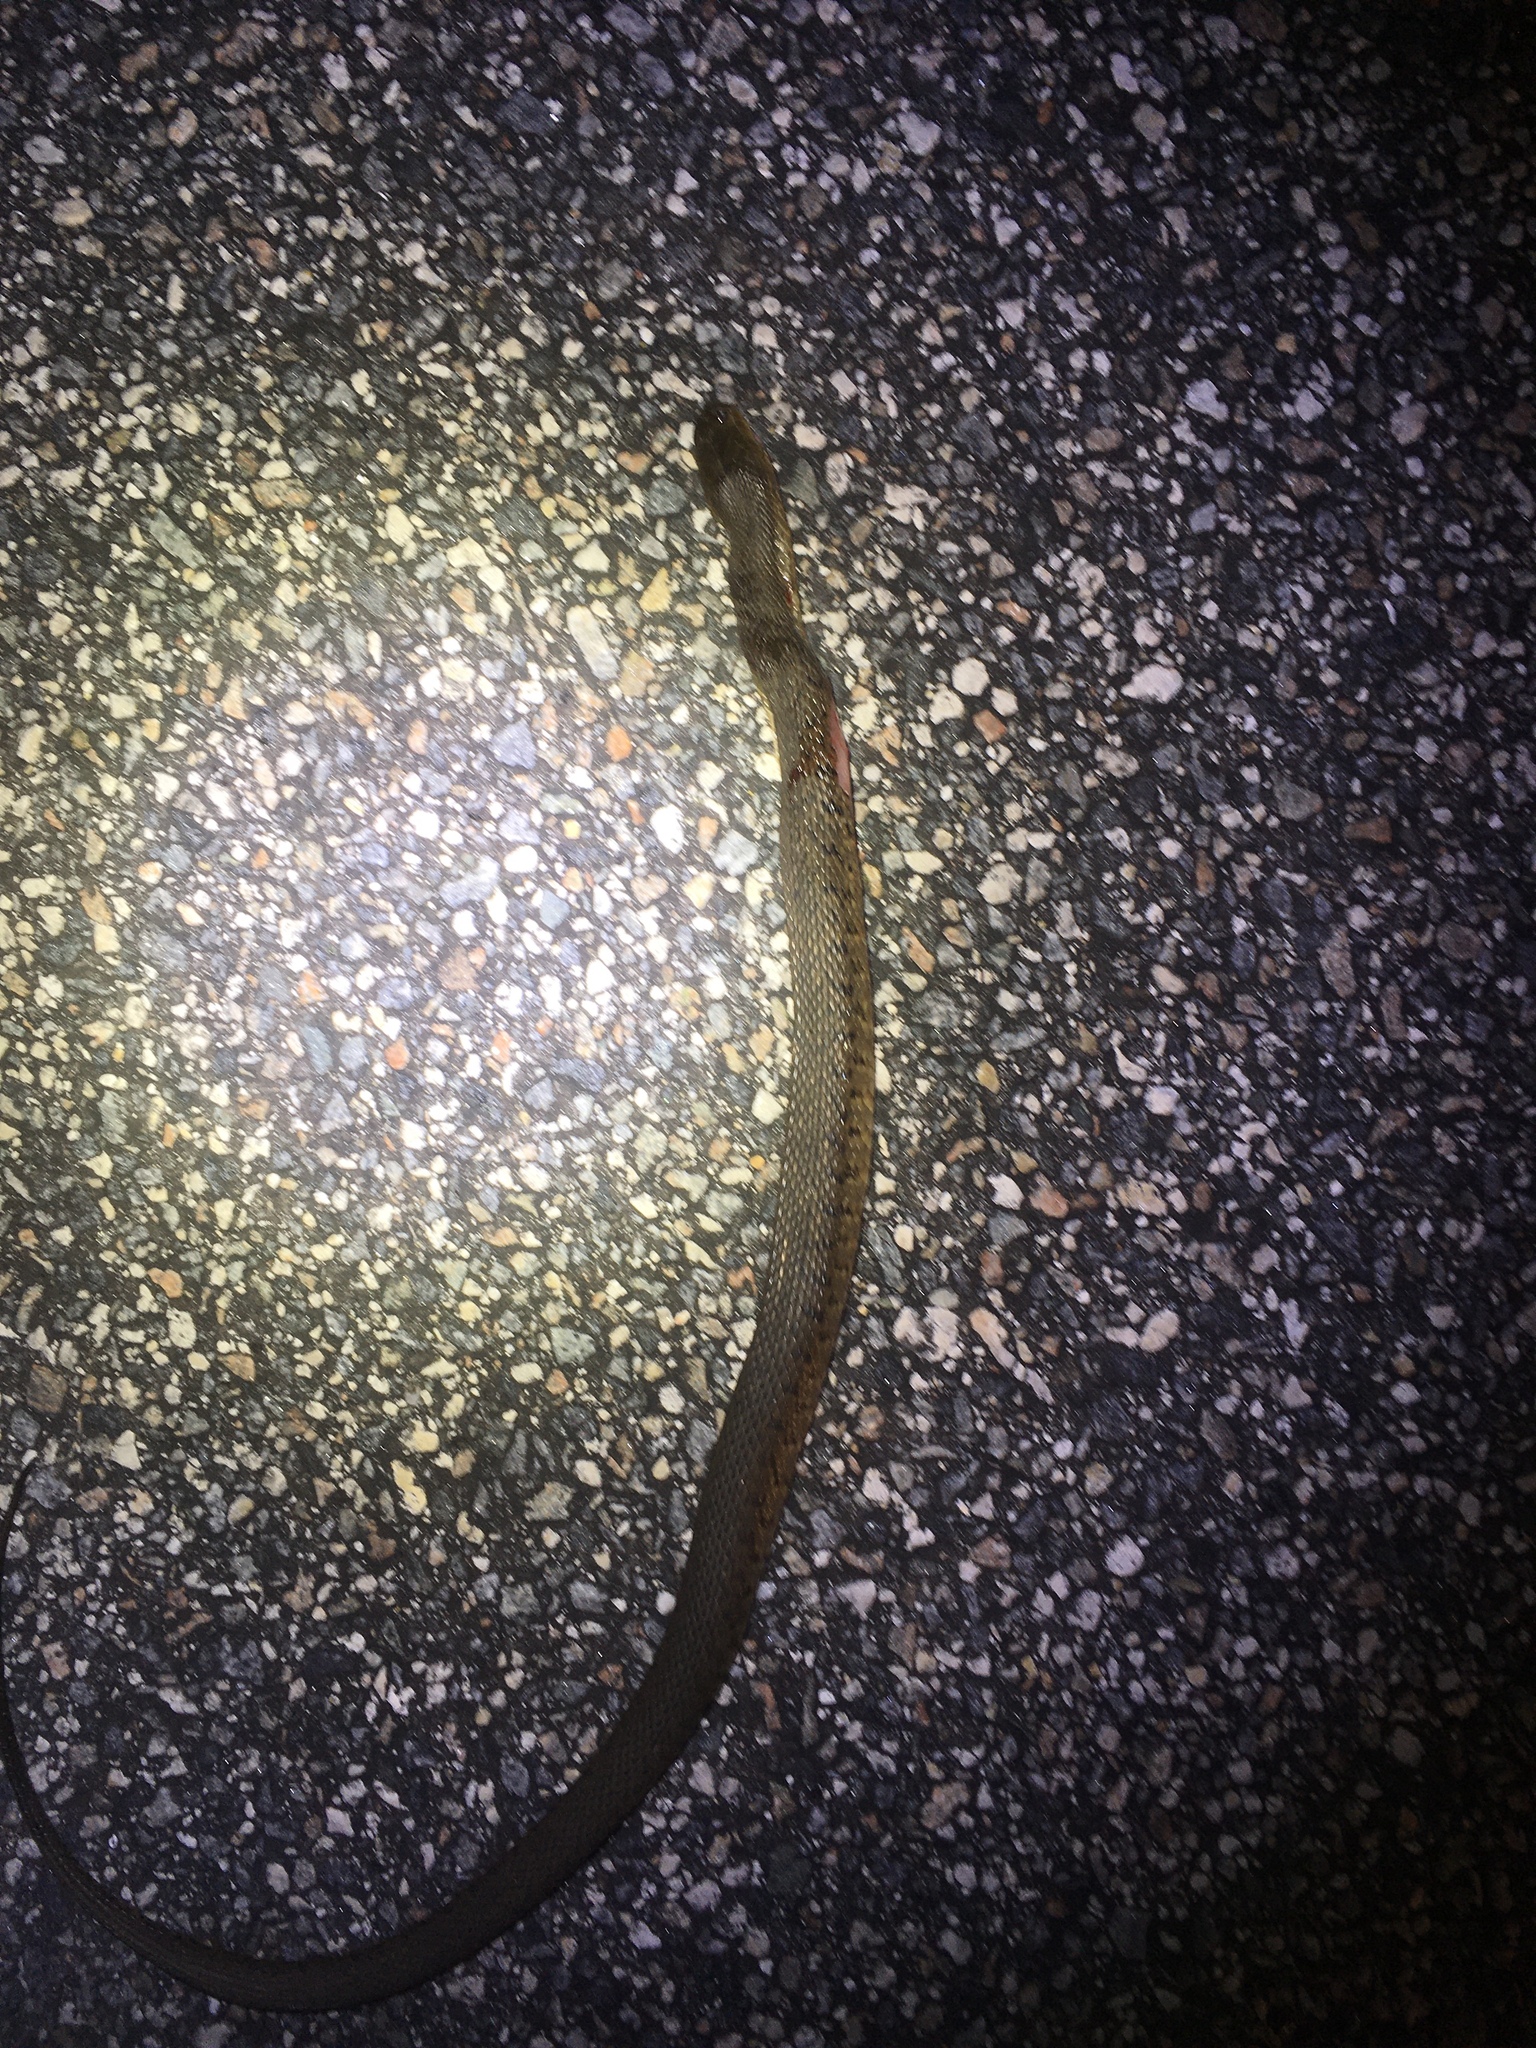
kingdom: Animalia
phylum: Chordata
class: Squamata
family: Colubridae
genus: Nerodia
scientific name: Nerodia floridana
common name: Florida green watersnake
